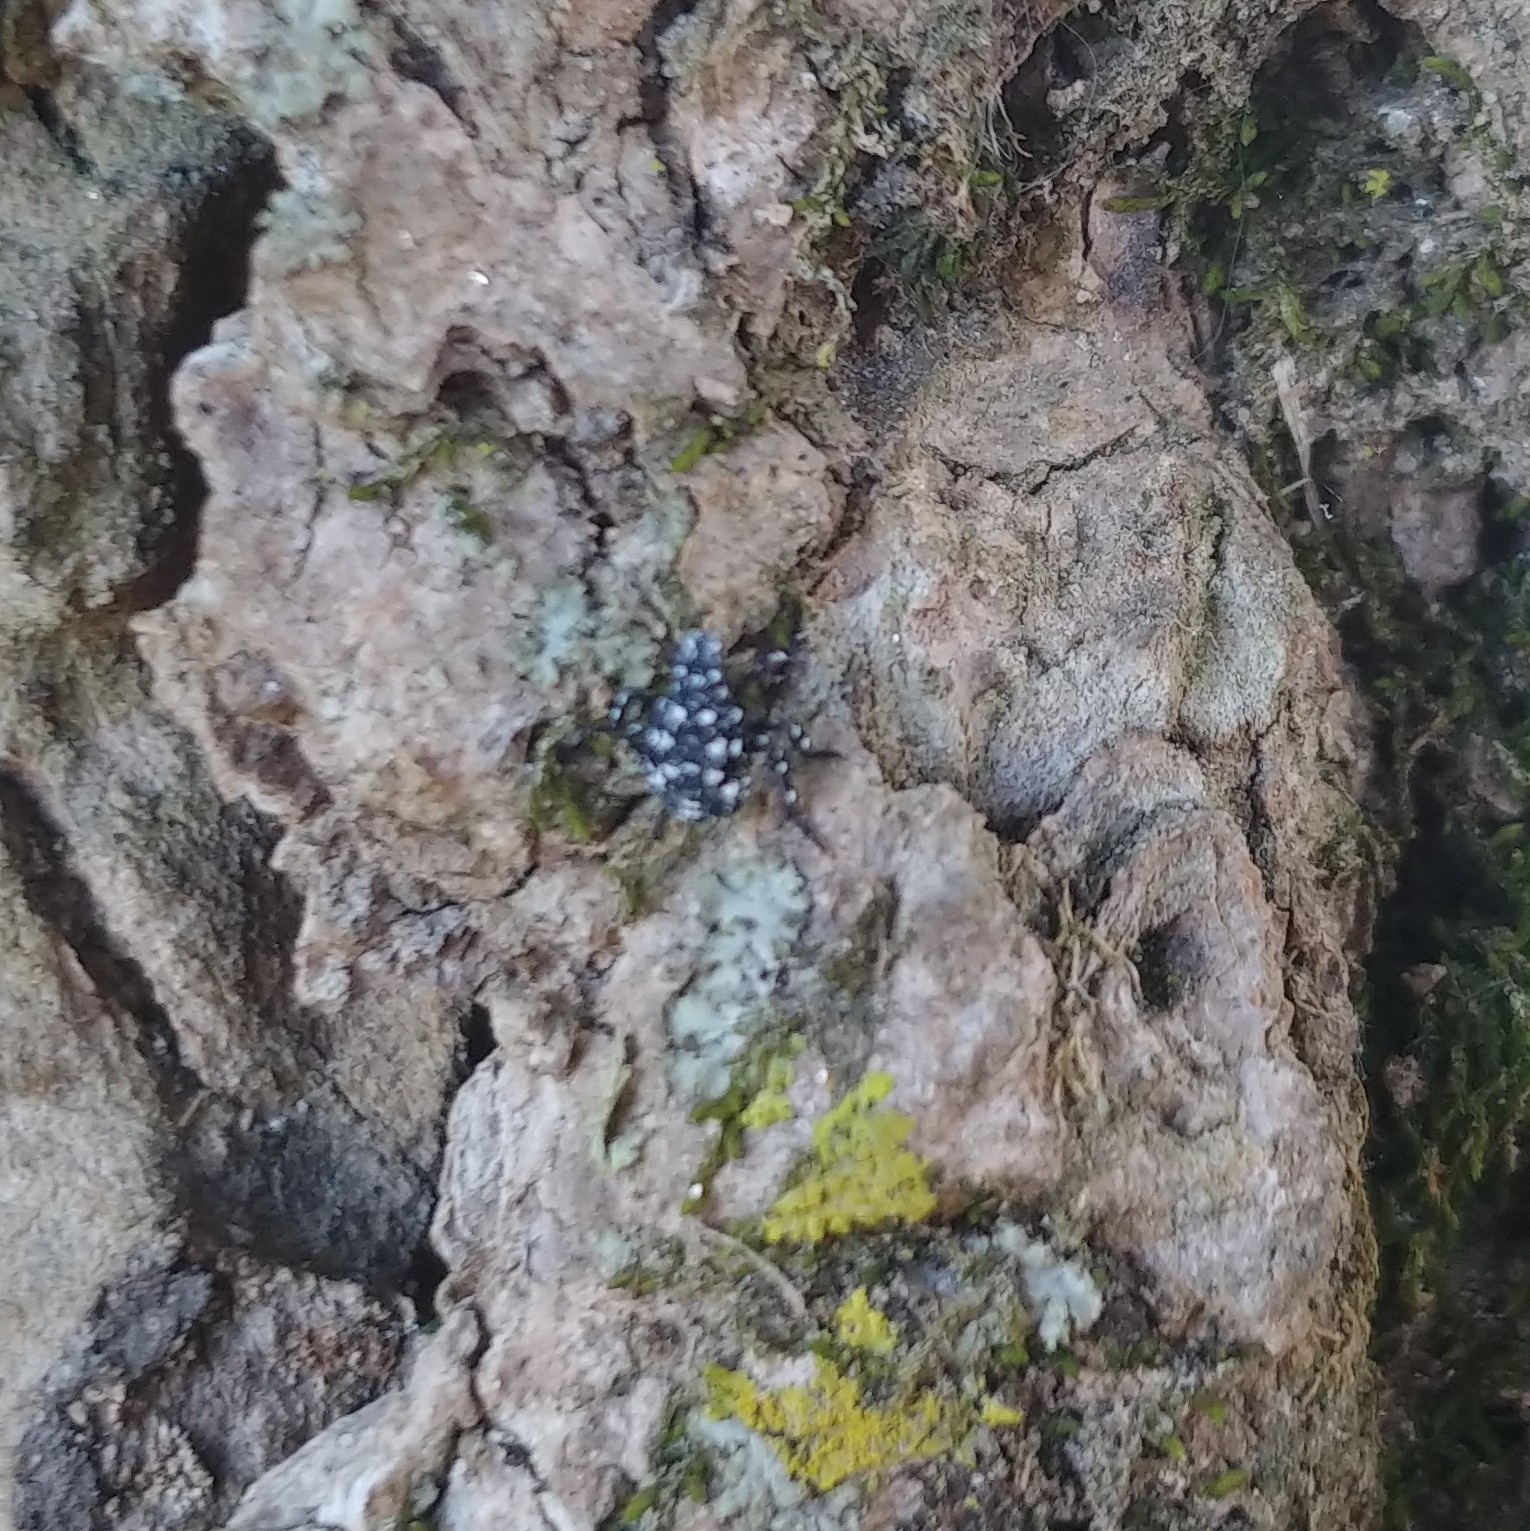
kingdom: Animalia
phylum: Arthropoda
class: Insecta
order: Hemiptera
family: Fulgoridae
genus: Lycorma
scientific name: Lycorma delicatula
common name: Spotted lanternfly
